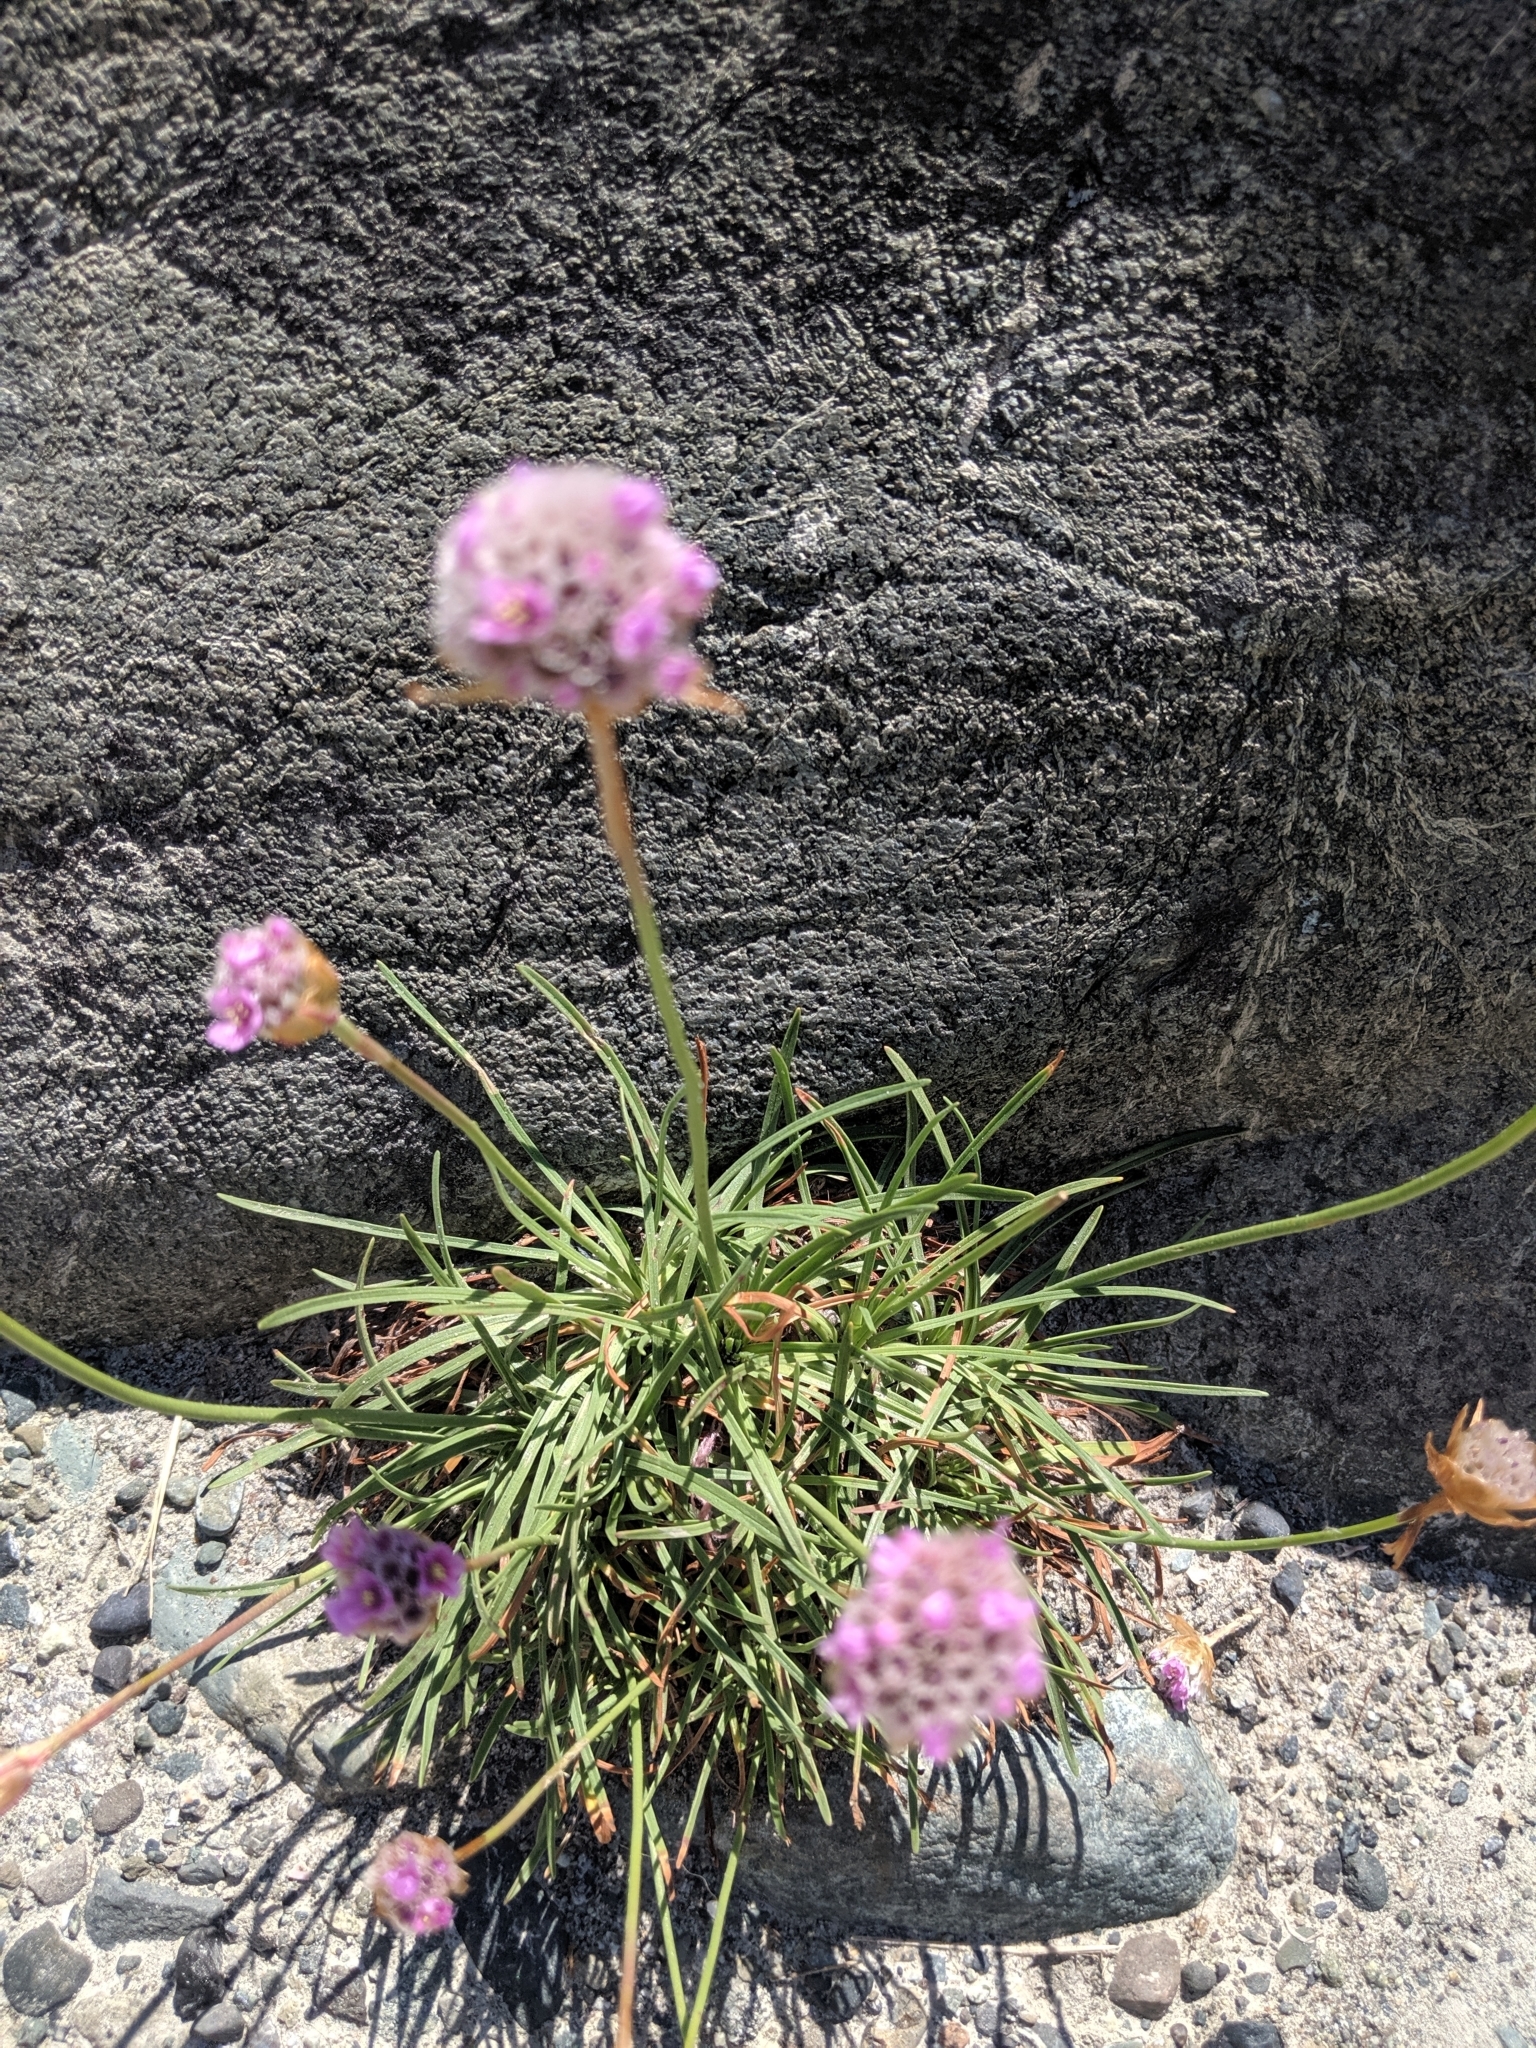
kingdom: Plantae
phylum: Tracheophyta
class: Magnoliopsida
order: Caryophyllales
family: Plumbaginaceae
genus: Armeria
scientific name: Armeria maritima
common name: Thrift
